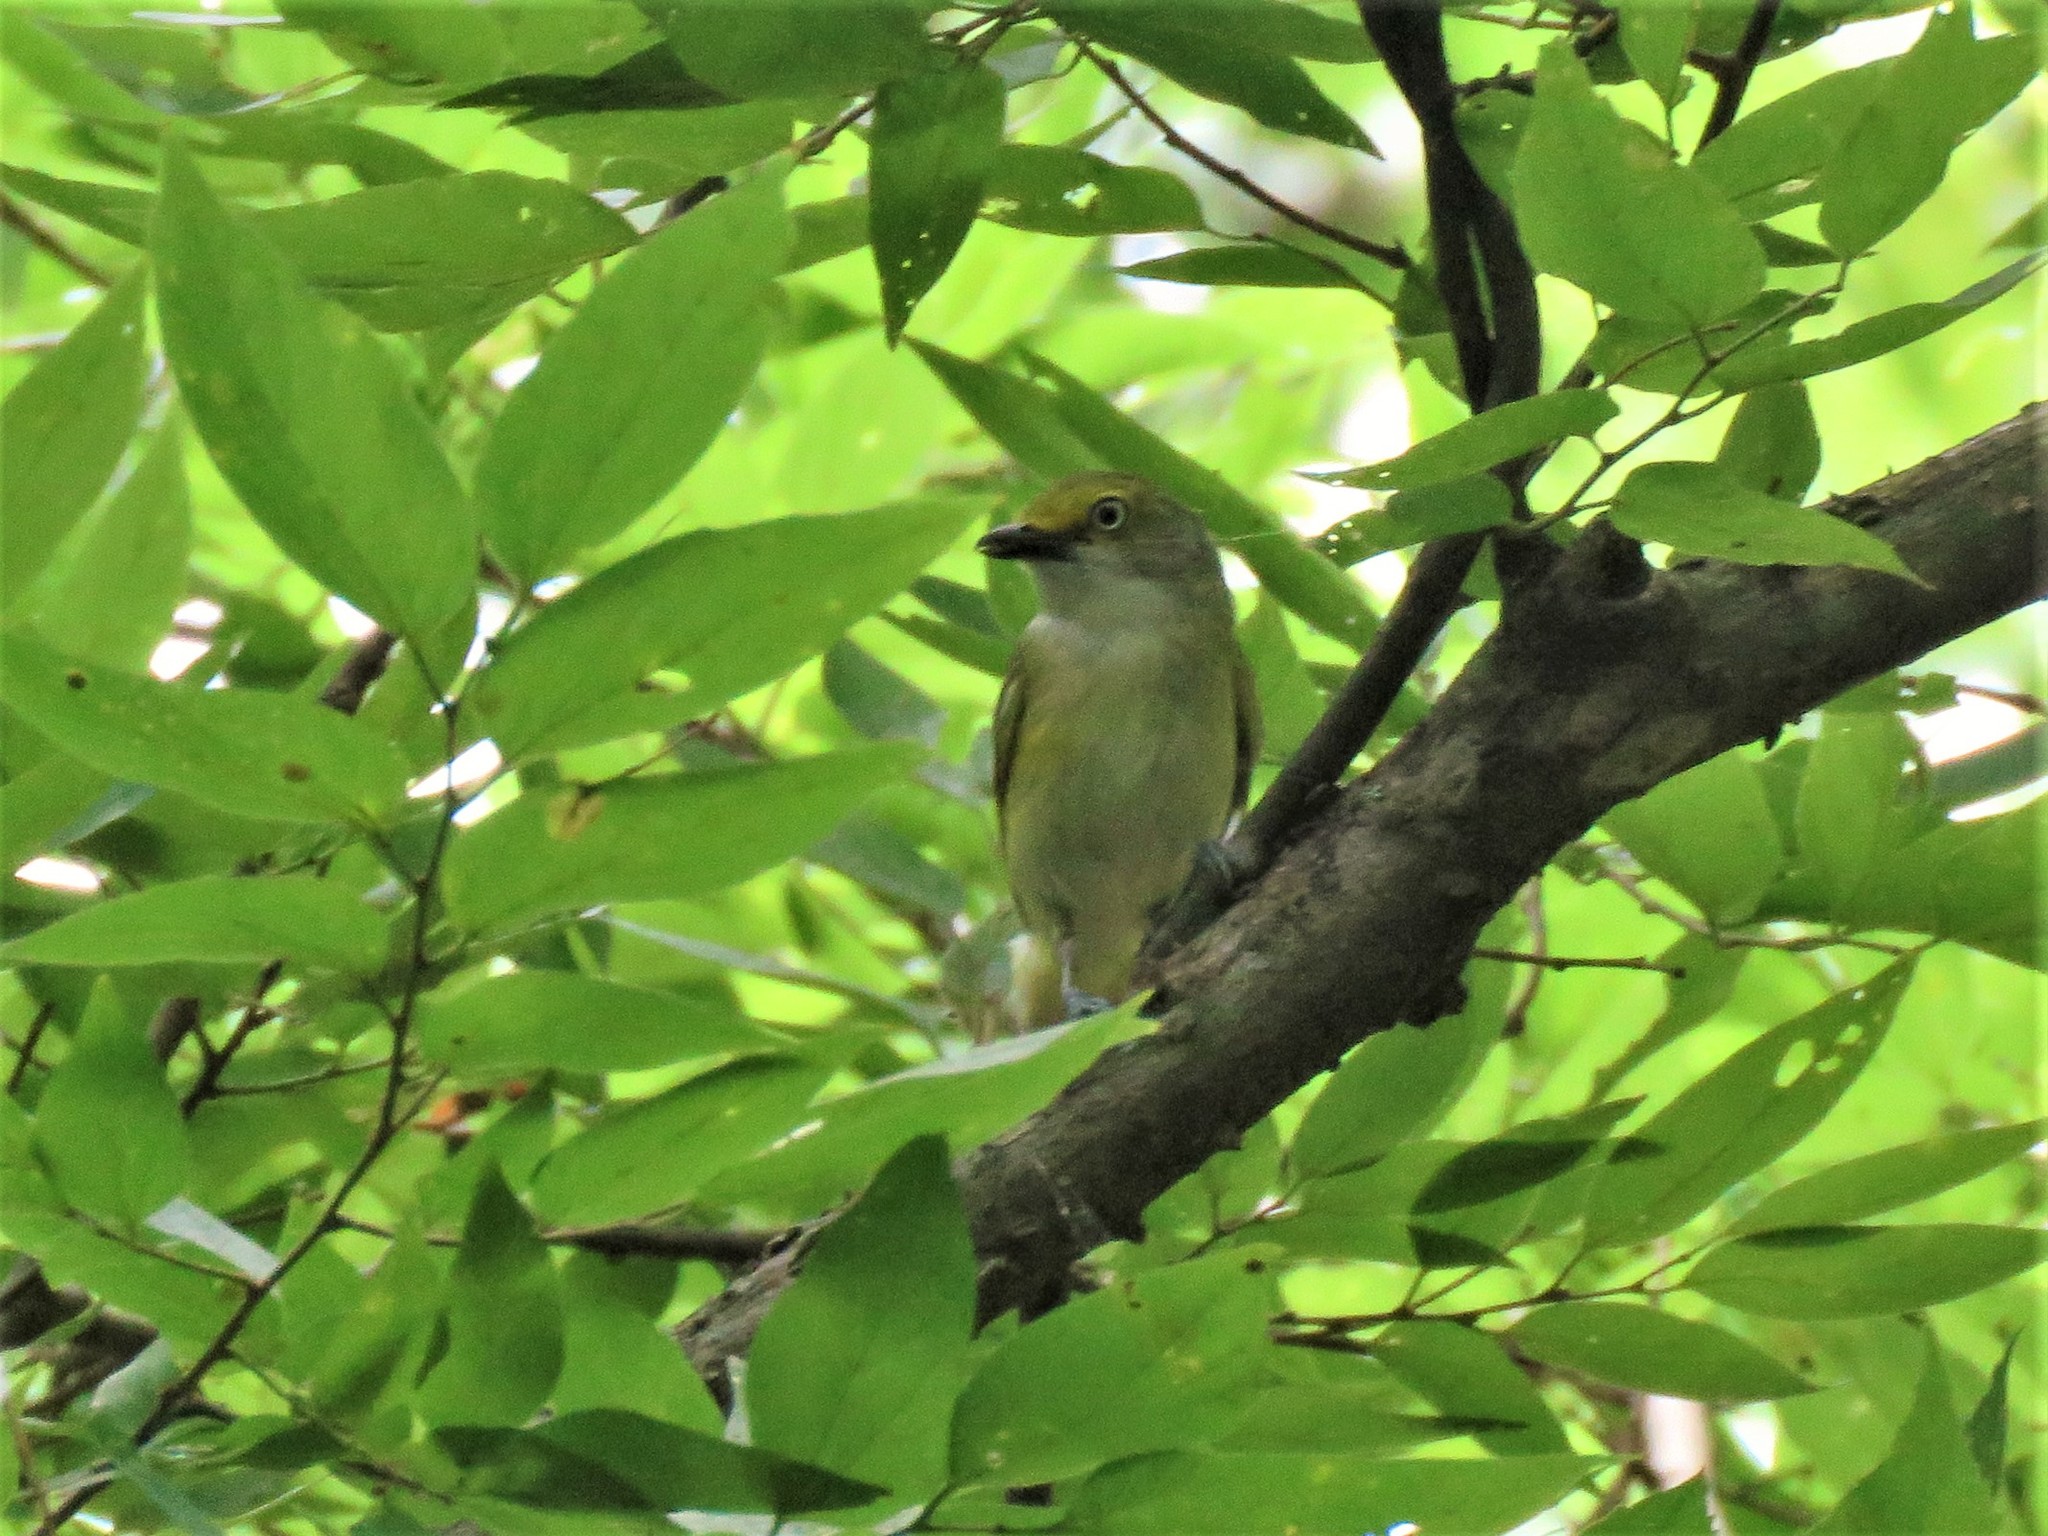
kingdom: Animalia
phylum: Chordata
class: Aves
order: Passeriformes
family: Vireonidae
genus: Vireo
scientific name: Vireo griseus
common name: White-eyed vireo
